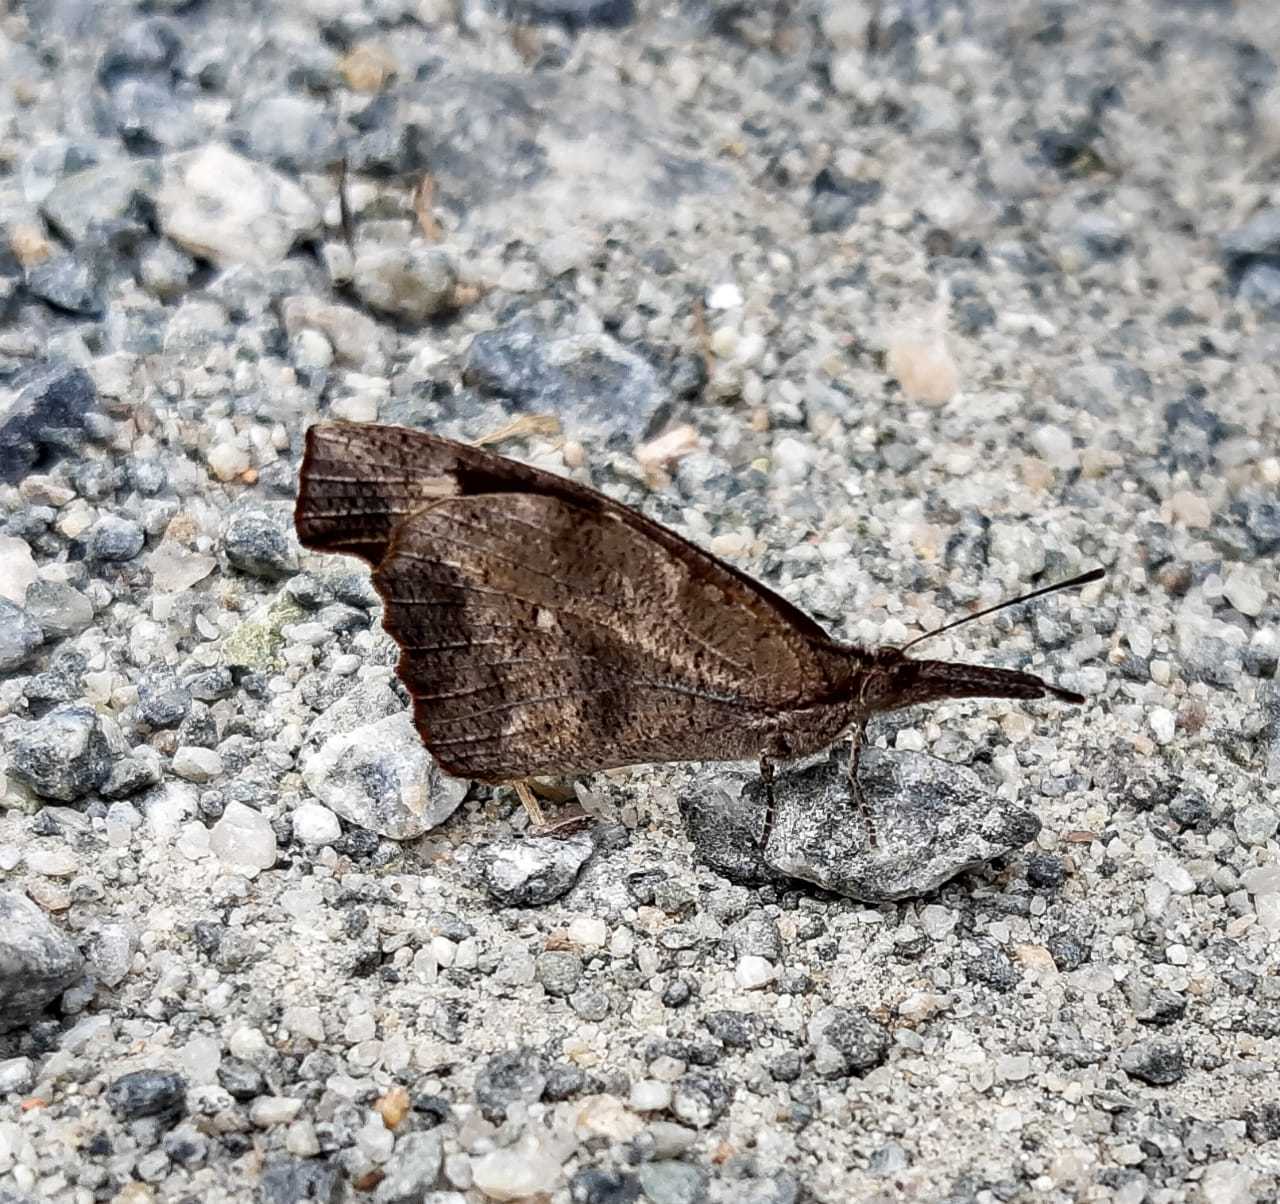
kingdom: Animalia
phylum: Arthropoda
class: Insecta
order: Lepidoptera
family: Nymphalidae
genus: Libytheana
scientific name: Libytheana carinenta
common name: American snout
